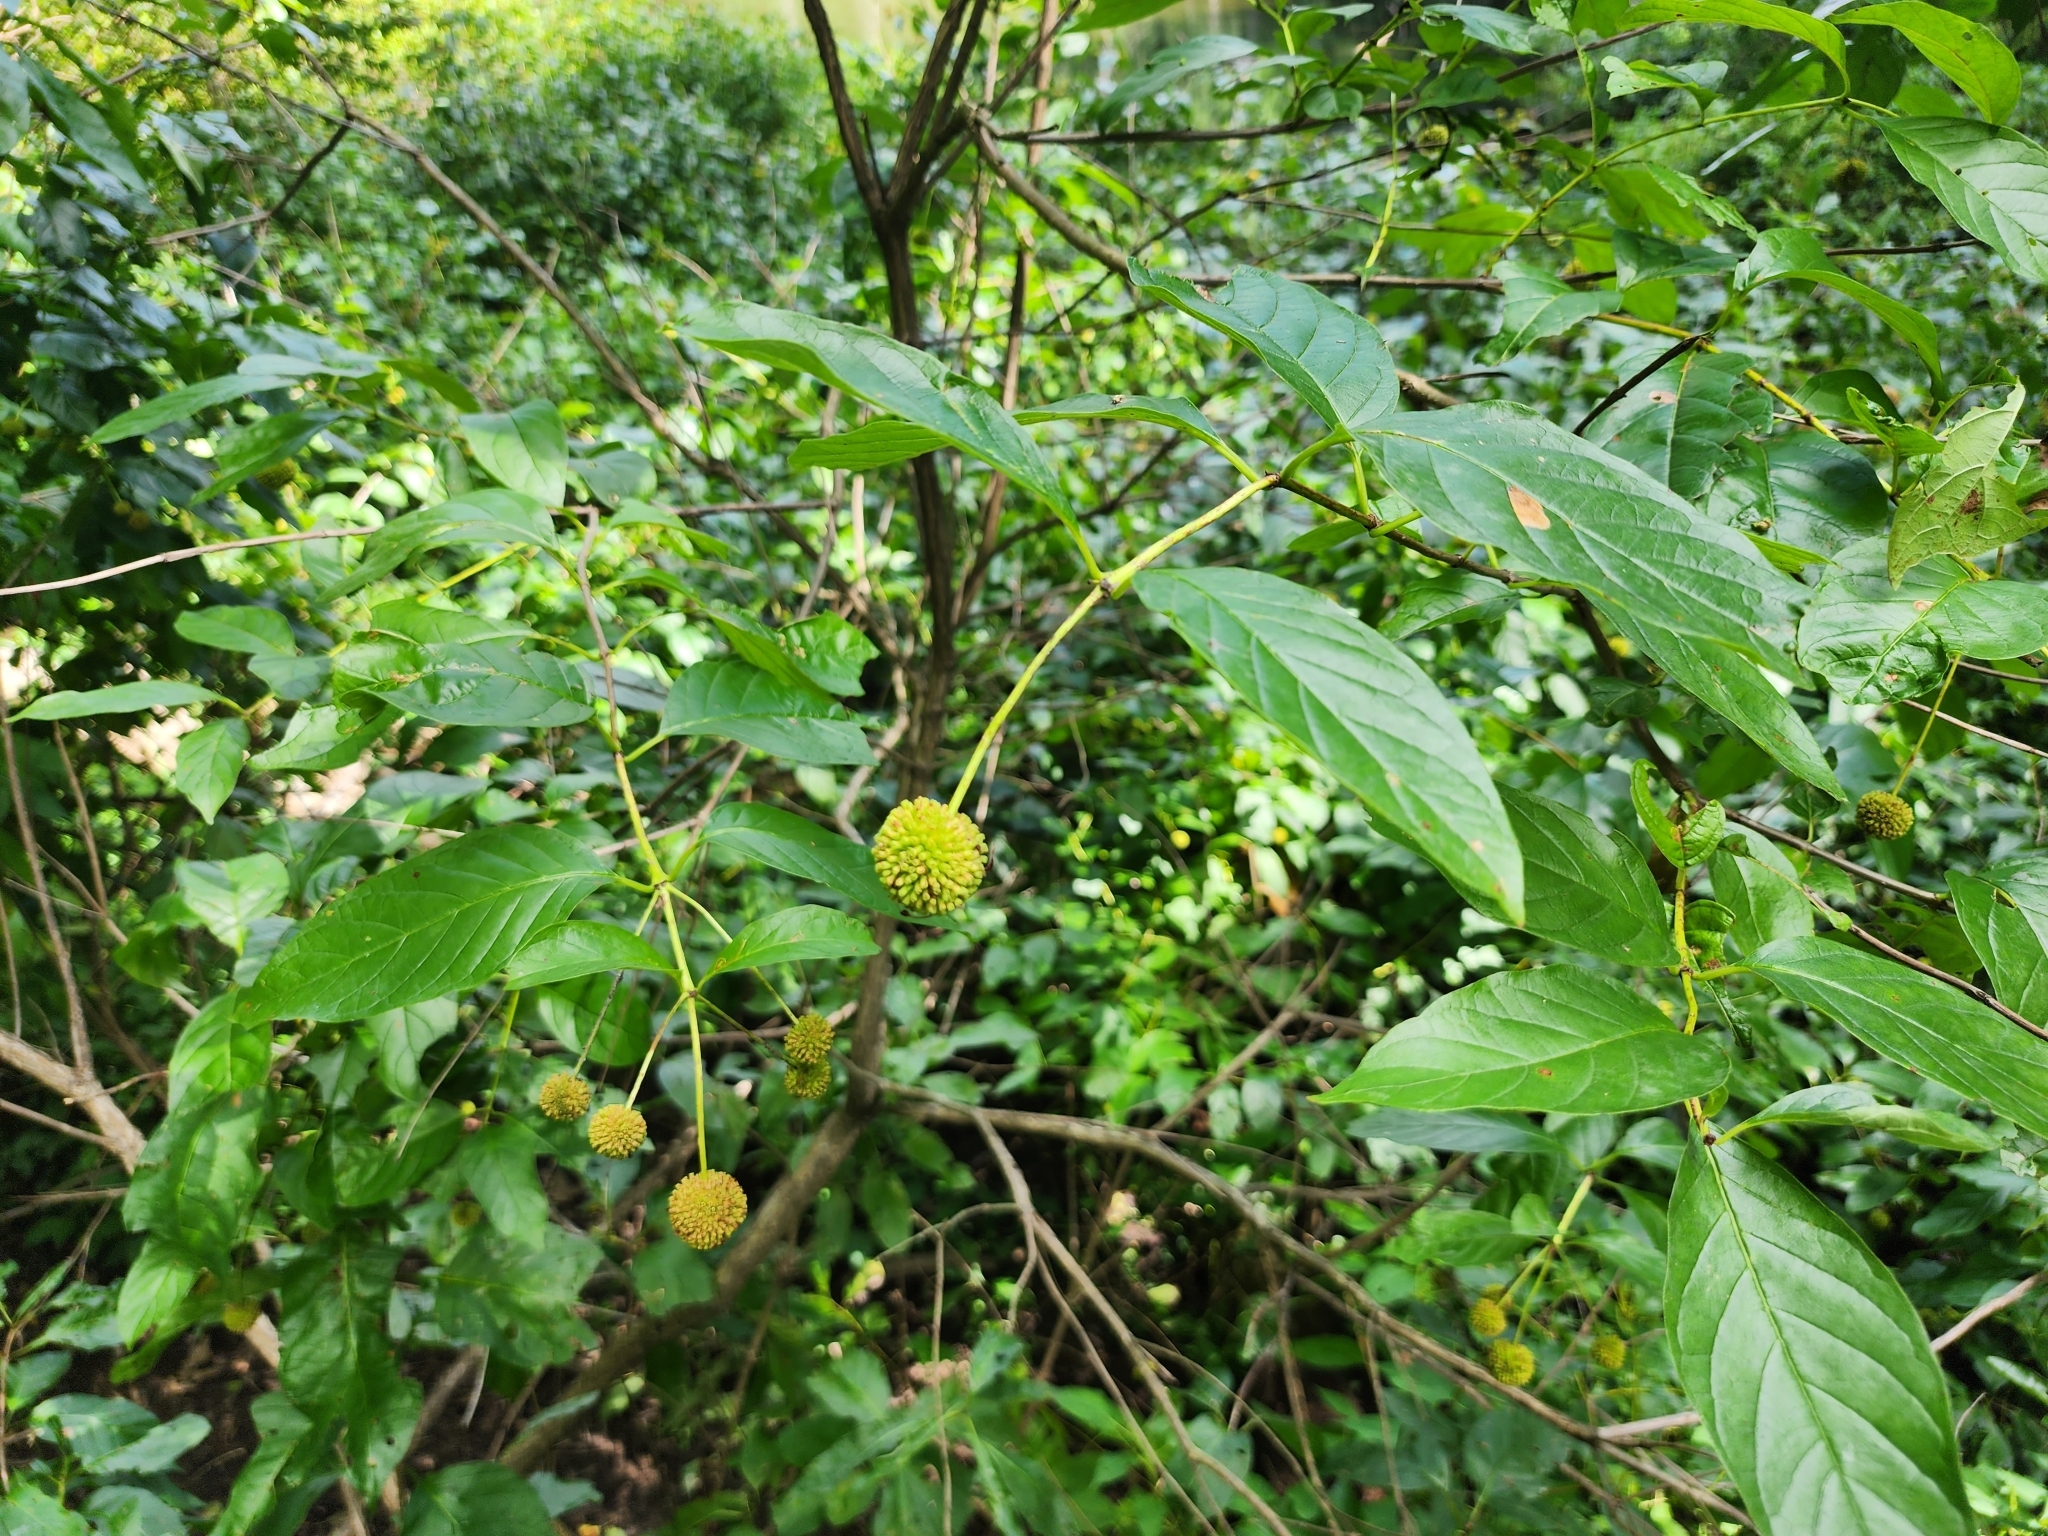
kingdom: Plantae
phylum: Tracheophyta
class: Magnoliopsida
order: Gentianales
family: Rubiaceae
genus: Cephalanthus
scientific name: Cephalanthus occidentalis
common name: Button-willow
